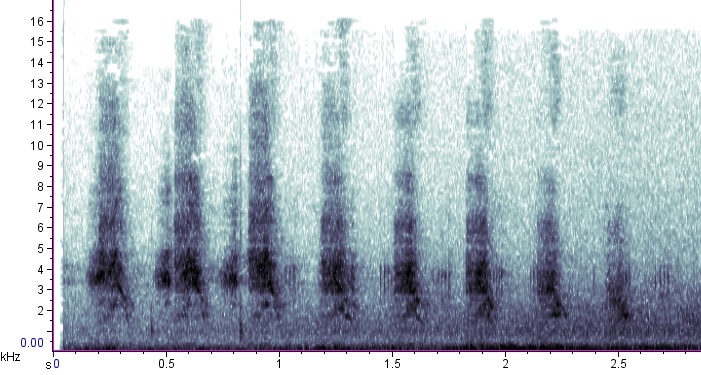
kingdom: Animalia
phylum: Chordata
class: Aves
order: Gruiformes
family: Rallidae
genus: Rallus
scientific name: Rallus limicola
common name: Virginia rail
